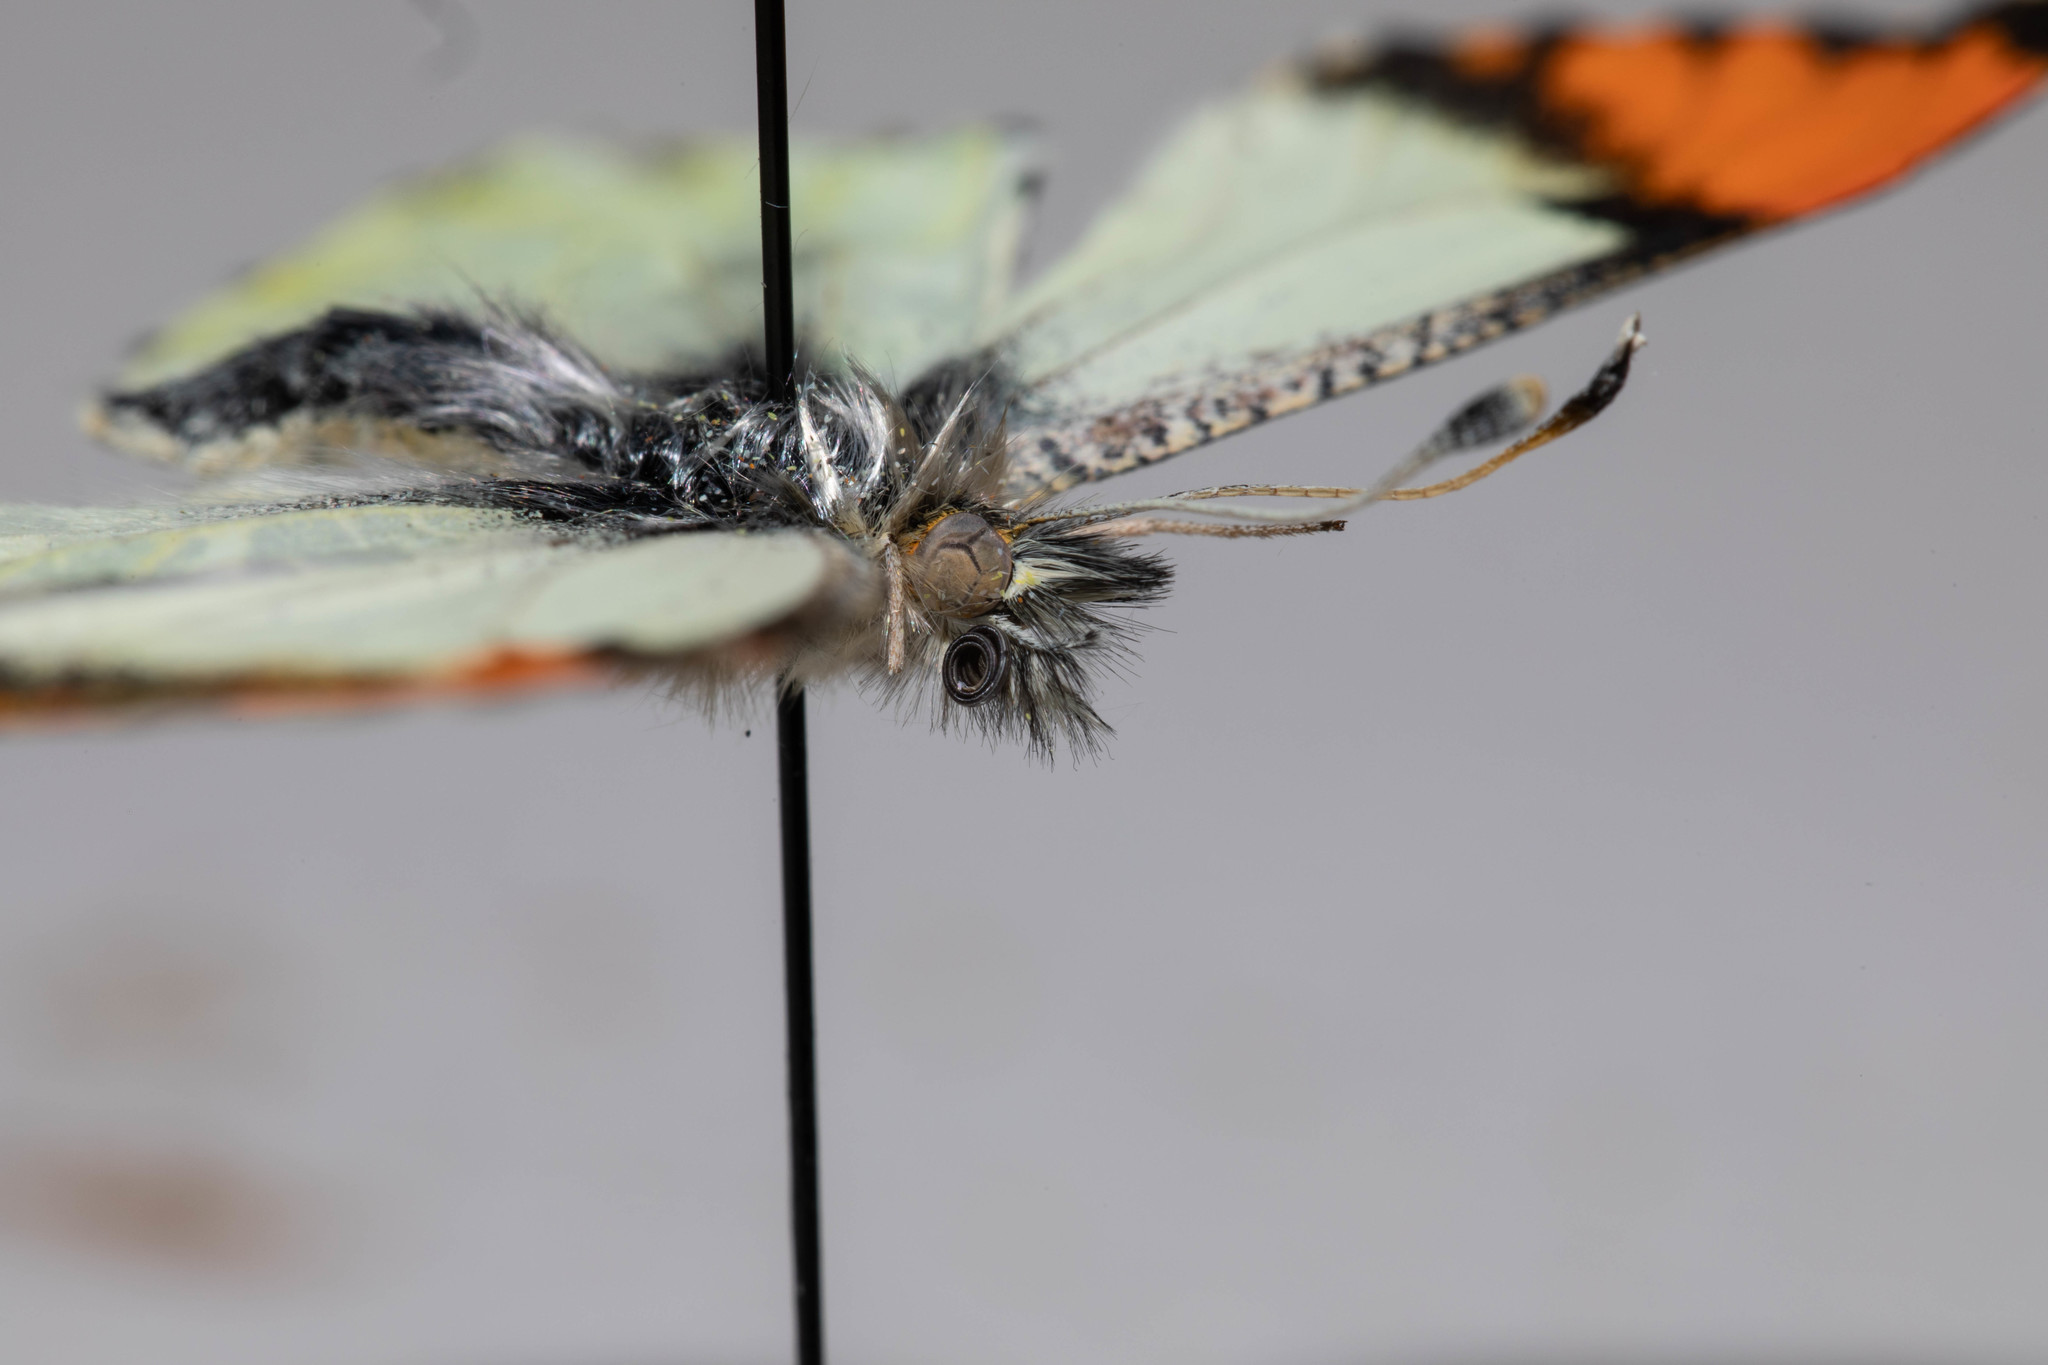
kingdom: Animalia
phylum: Arthropoda
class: Insecta
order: Lepidoptera
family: Pieridae
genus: Anthocharis
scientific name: Anthocharis julia
